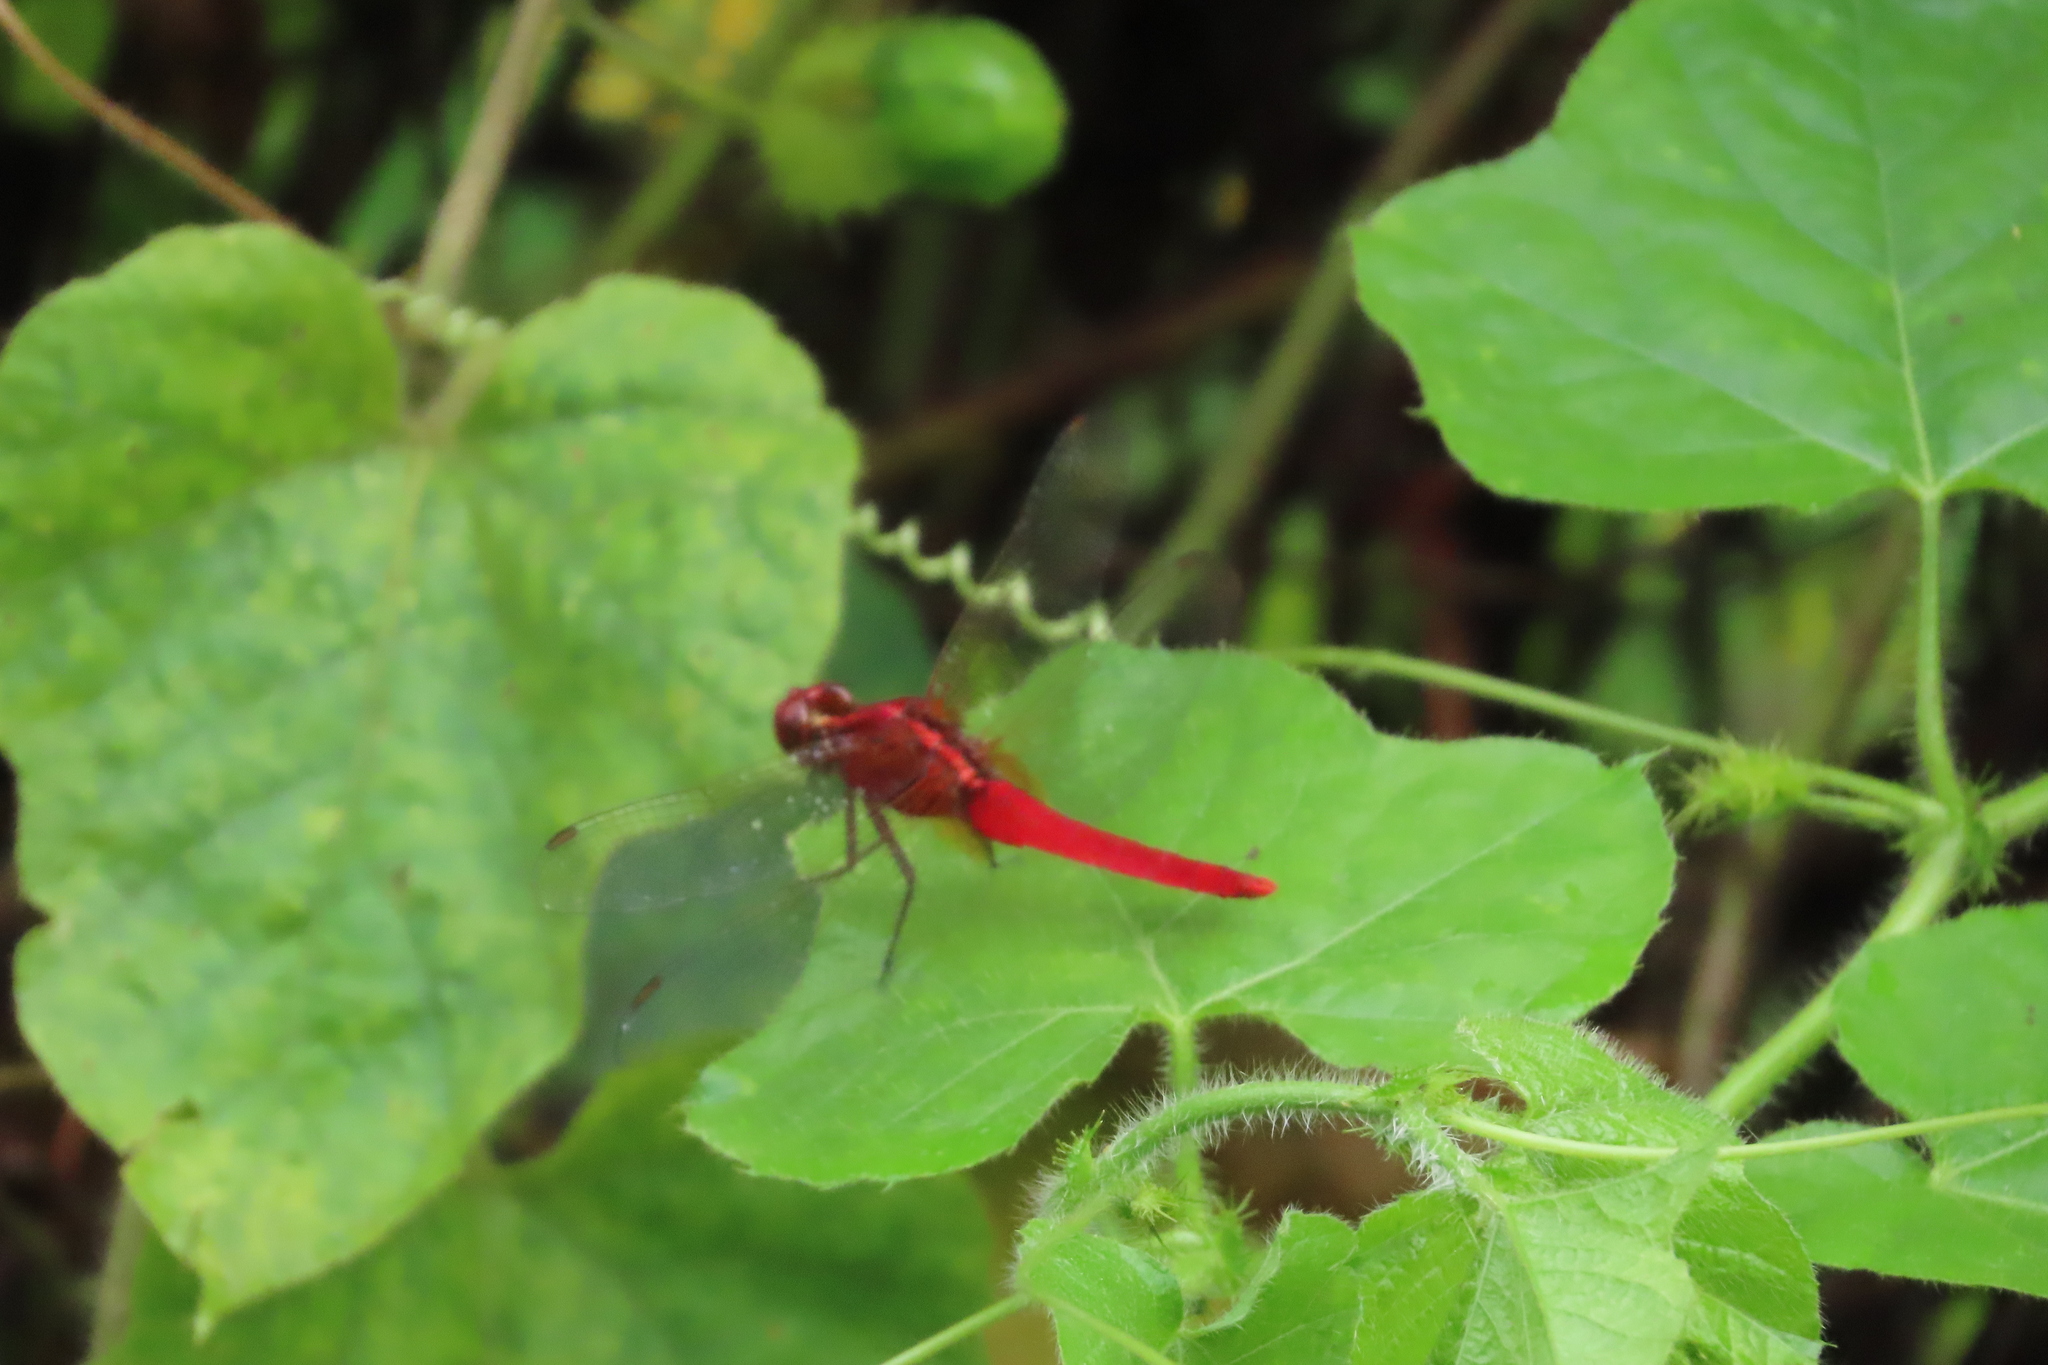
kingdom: Animalia
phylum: Arthropoda
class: Insecta
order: Odonata
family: Libellulidae
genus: Rhodothemis
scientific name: Rhodothemis rufa
